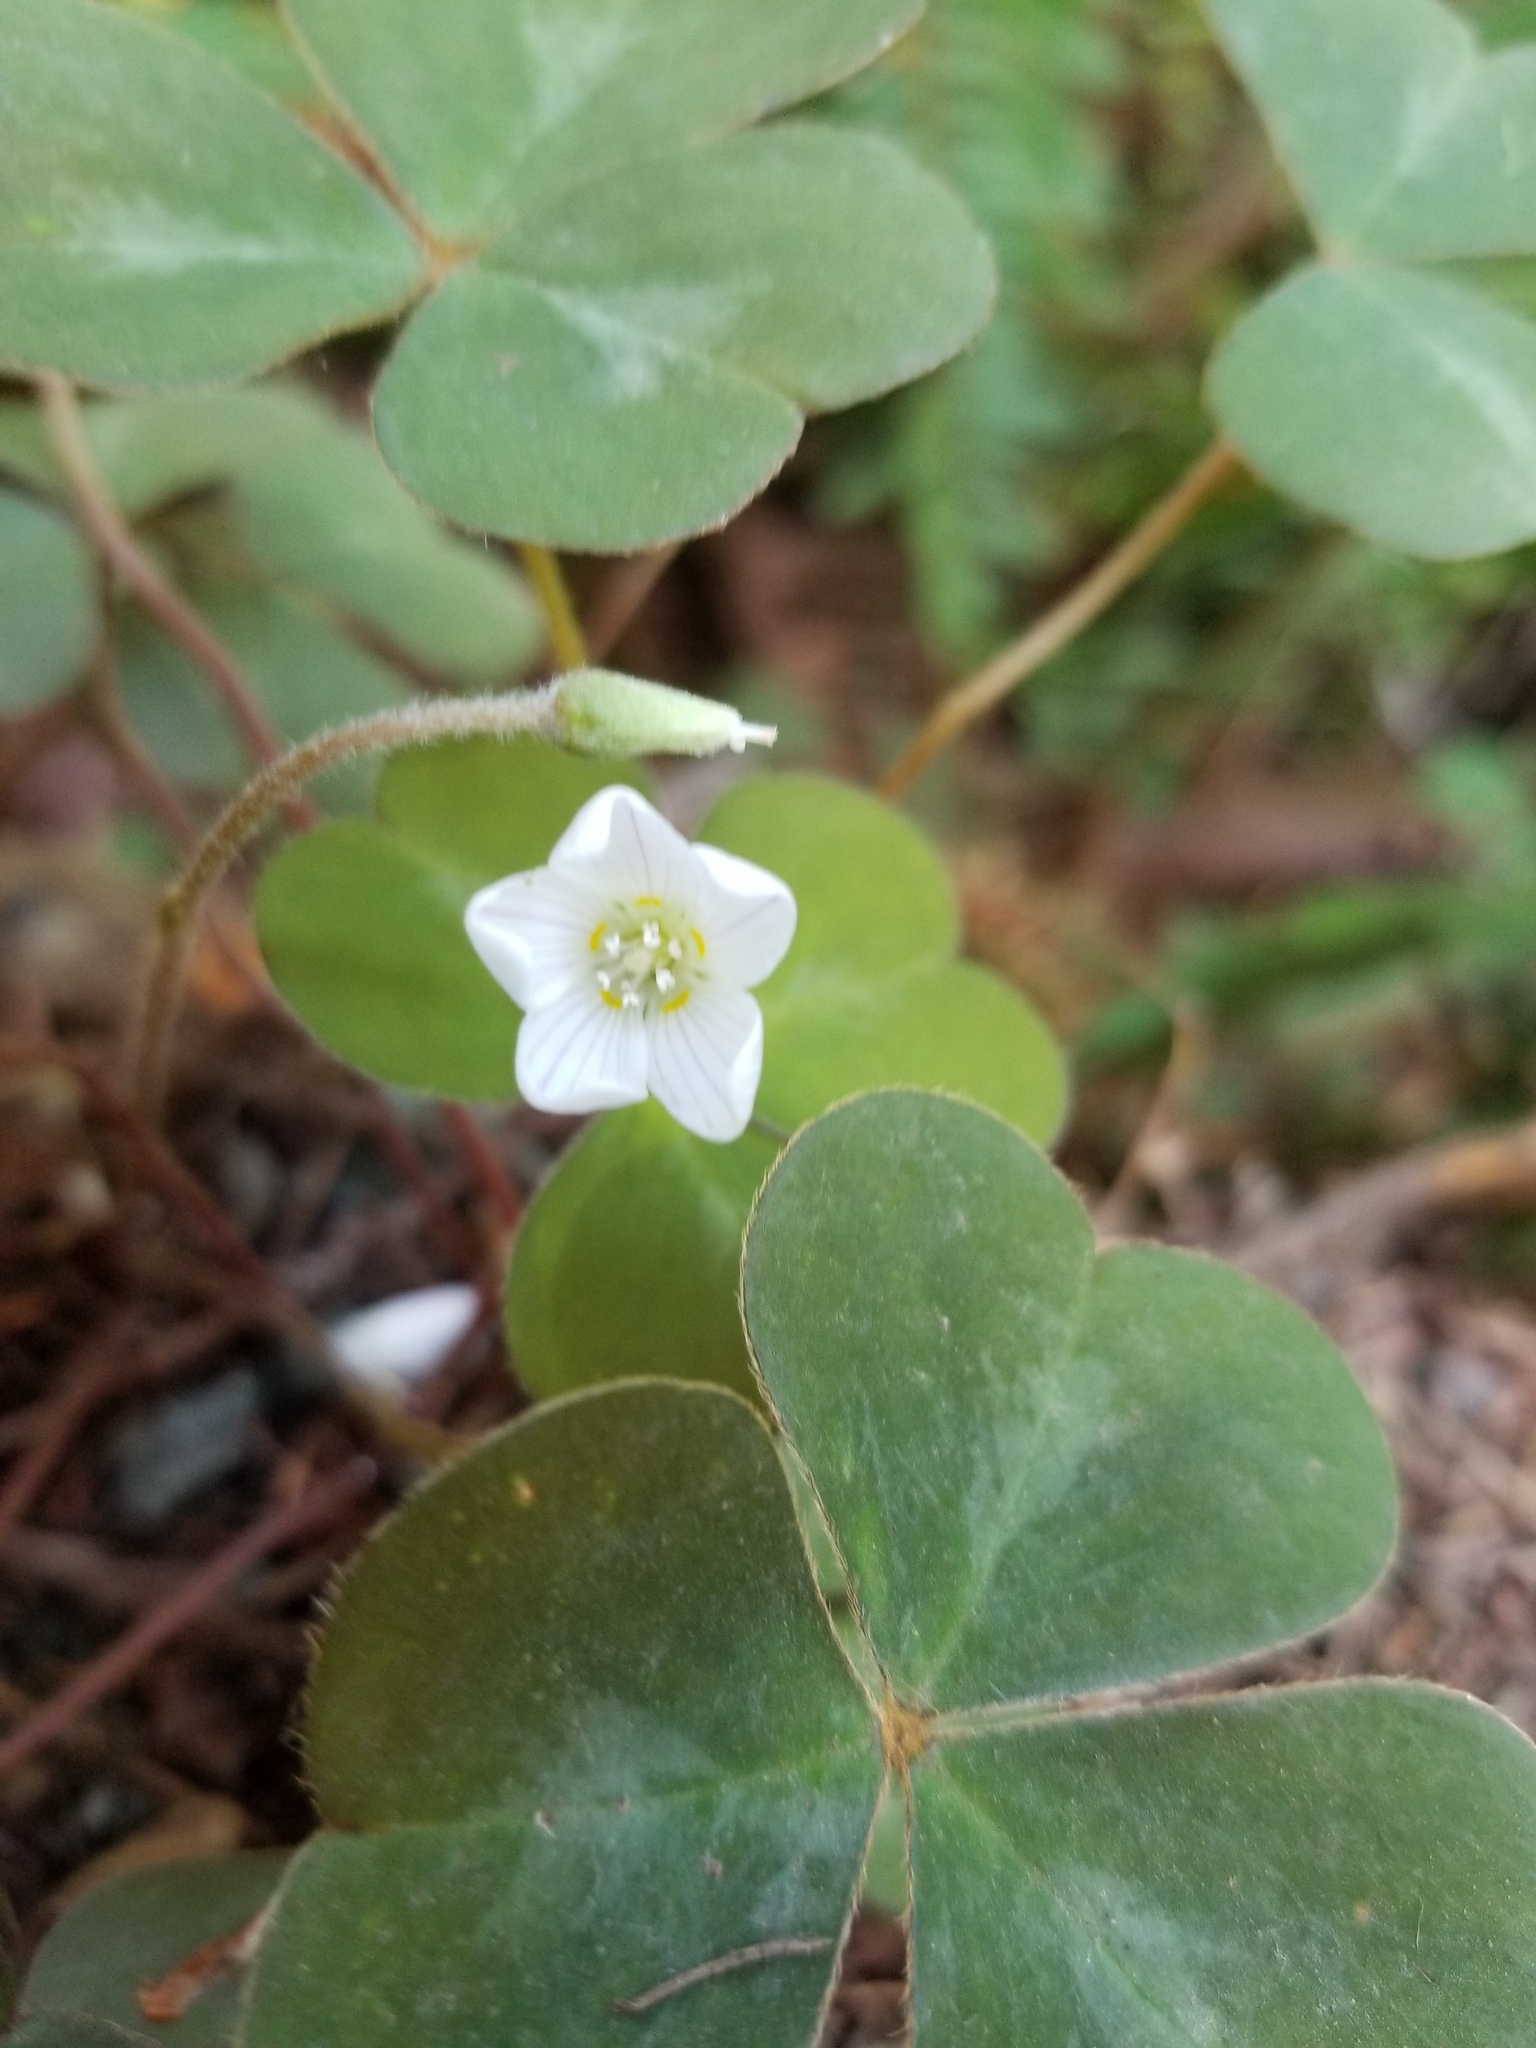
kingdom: Plantae
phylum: Tracheophyta
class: Magnoliopsida
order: Oxalidales
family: Oxalidaceae
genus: Oxalis
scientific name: Oxalis oregana
